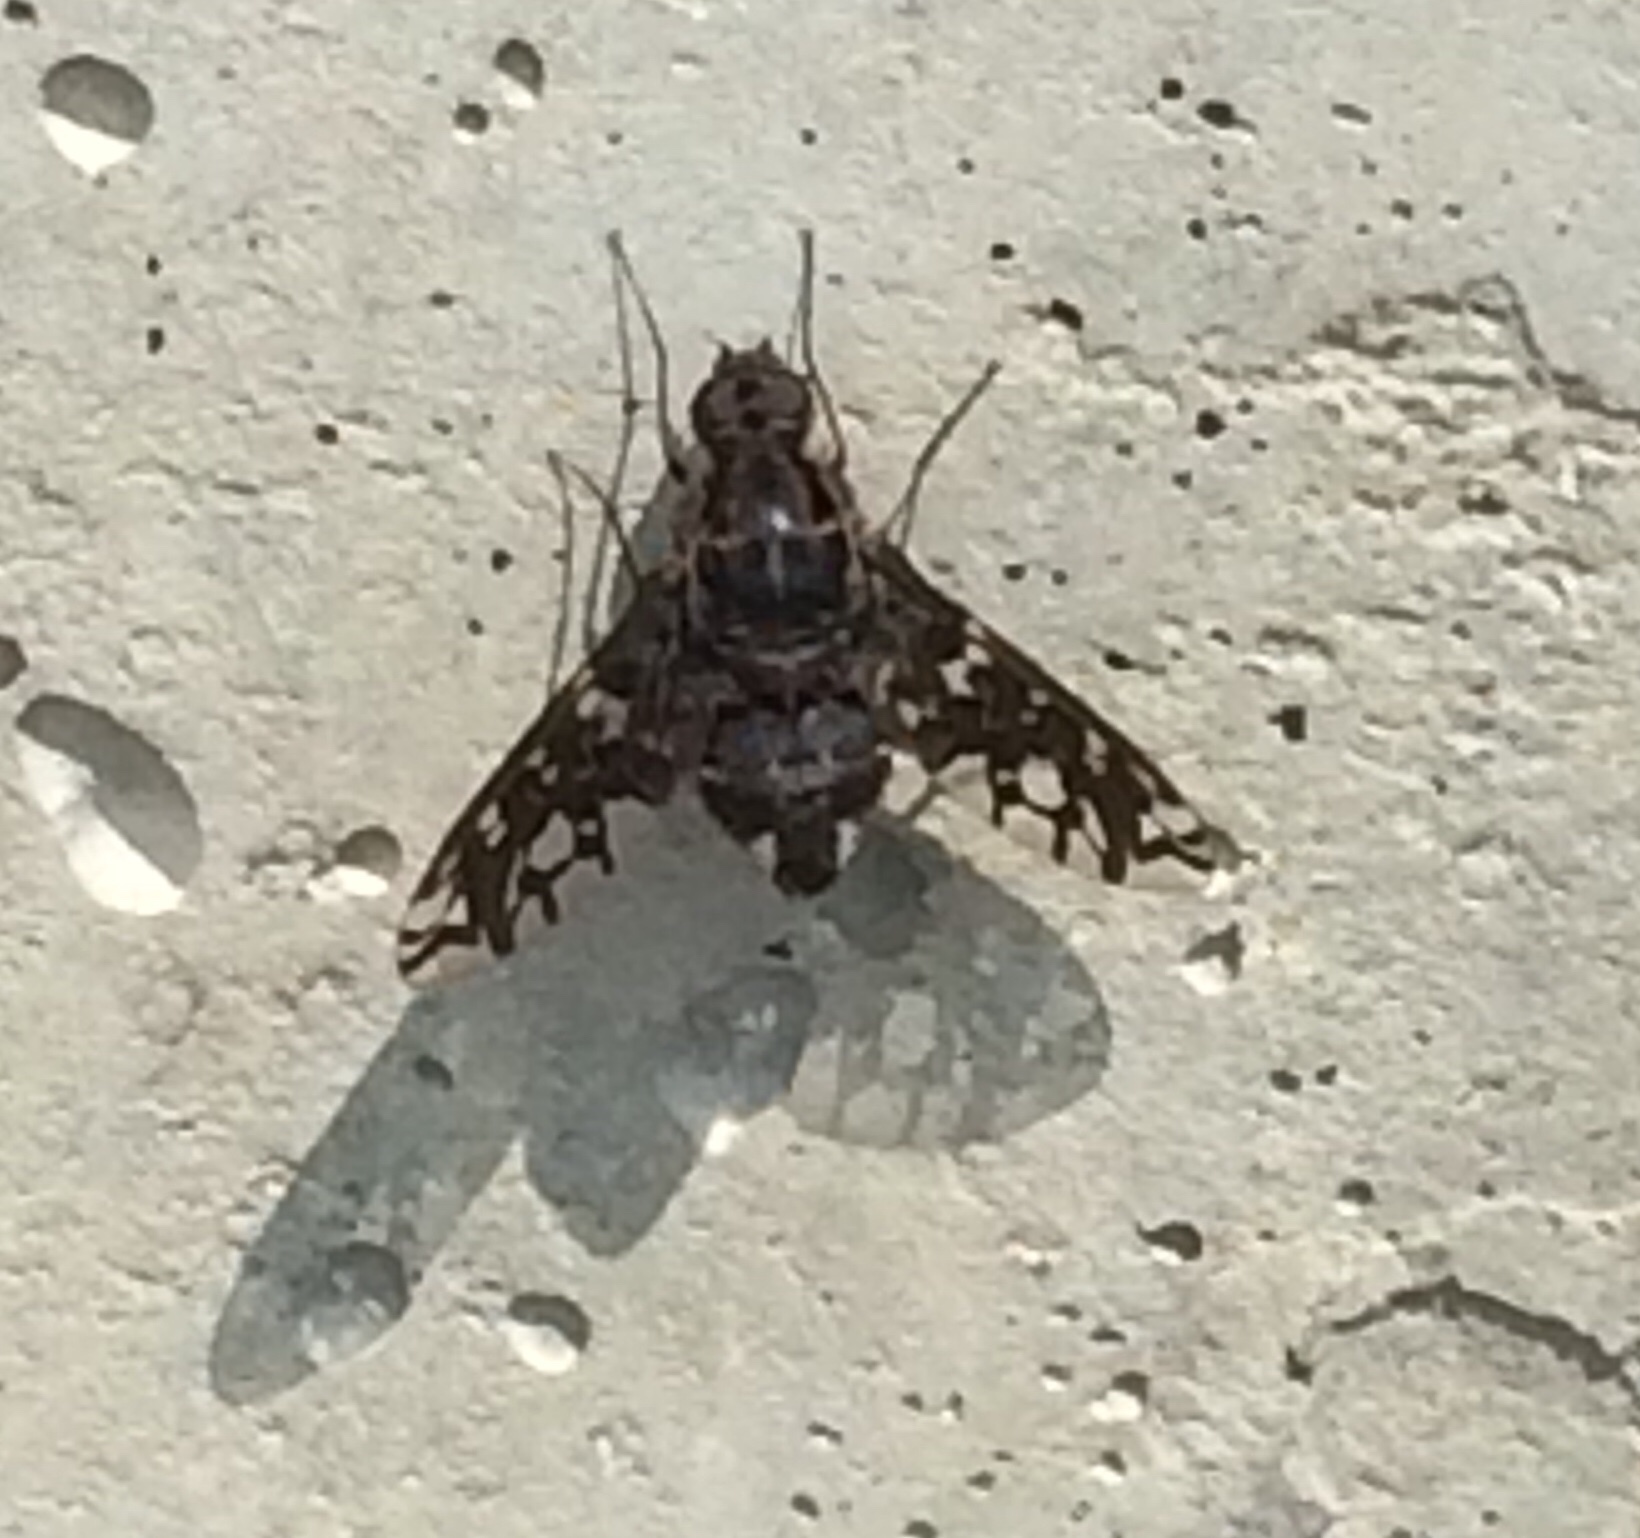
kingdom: Animalia
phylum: Arthropoda
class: Insecta
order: Diptera
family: Bombyliidae
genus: Xenox
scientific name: Xenox tigrinus
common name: Tiger bee fly
